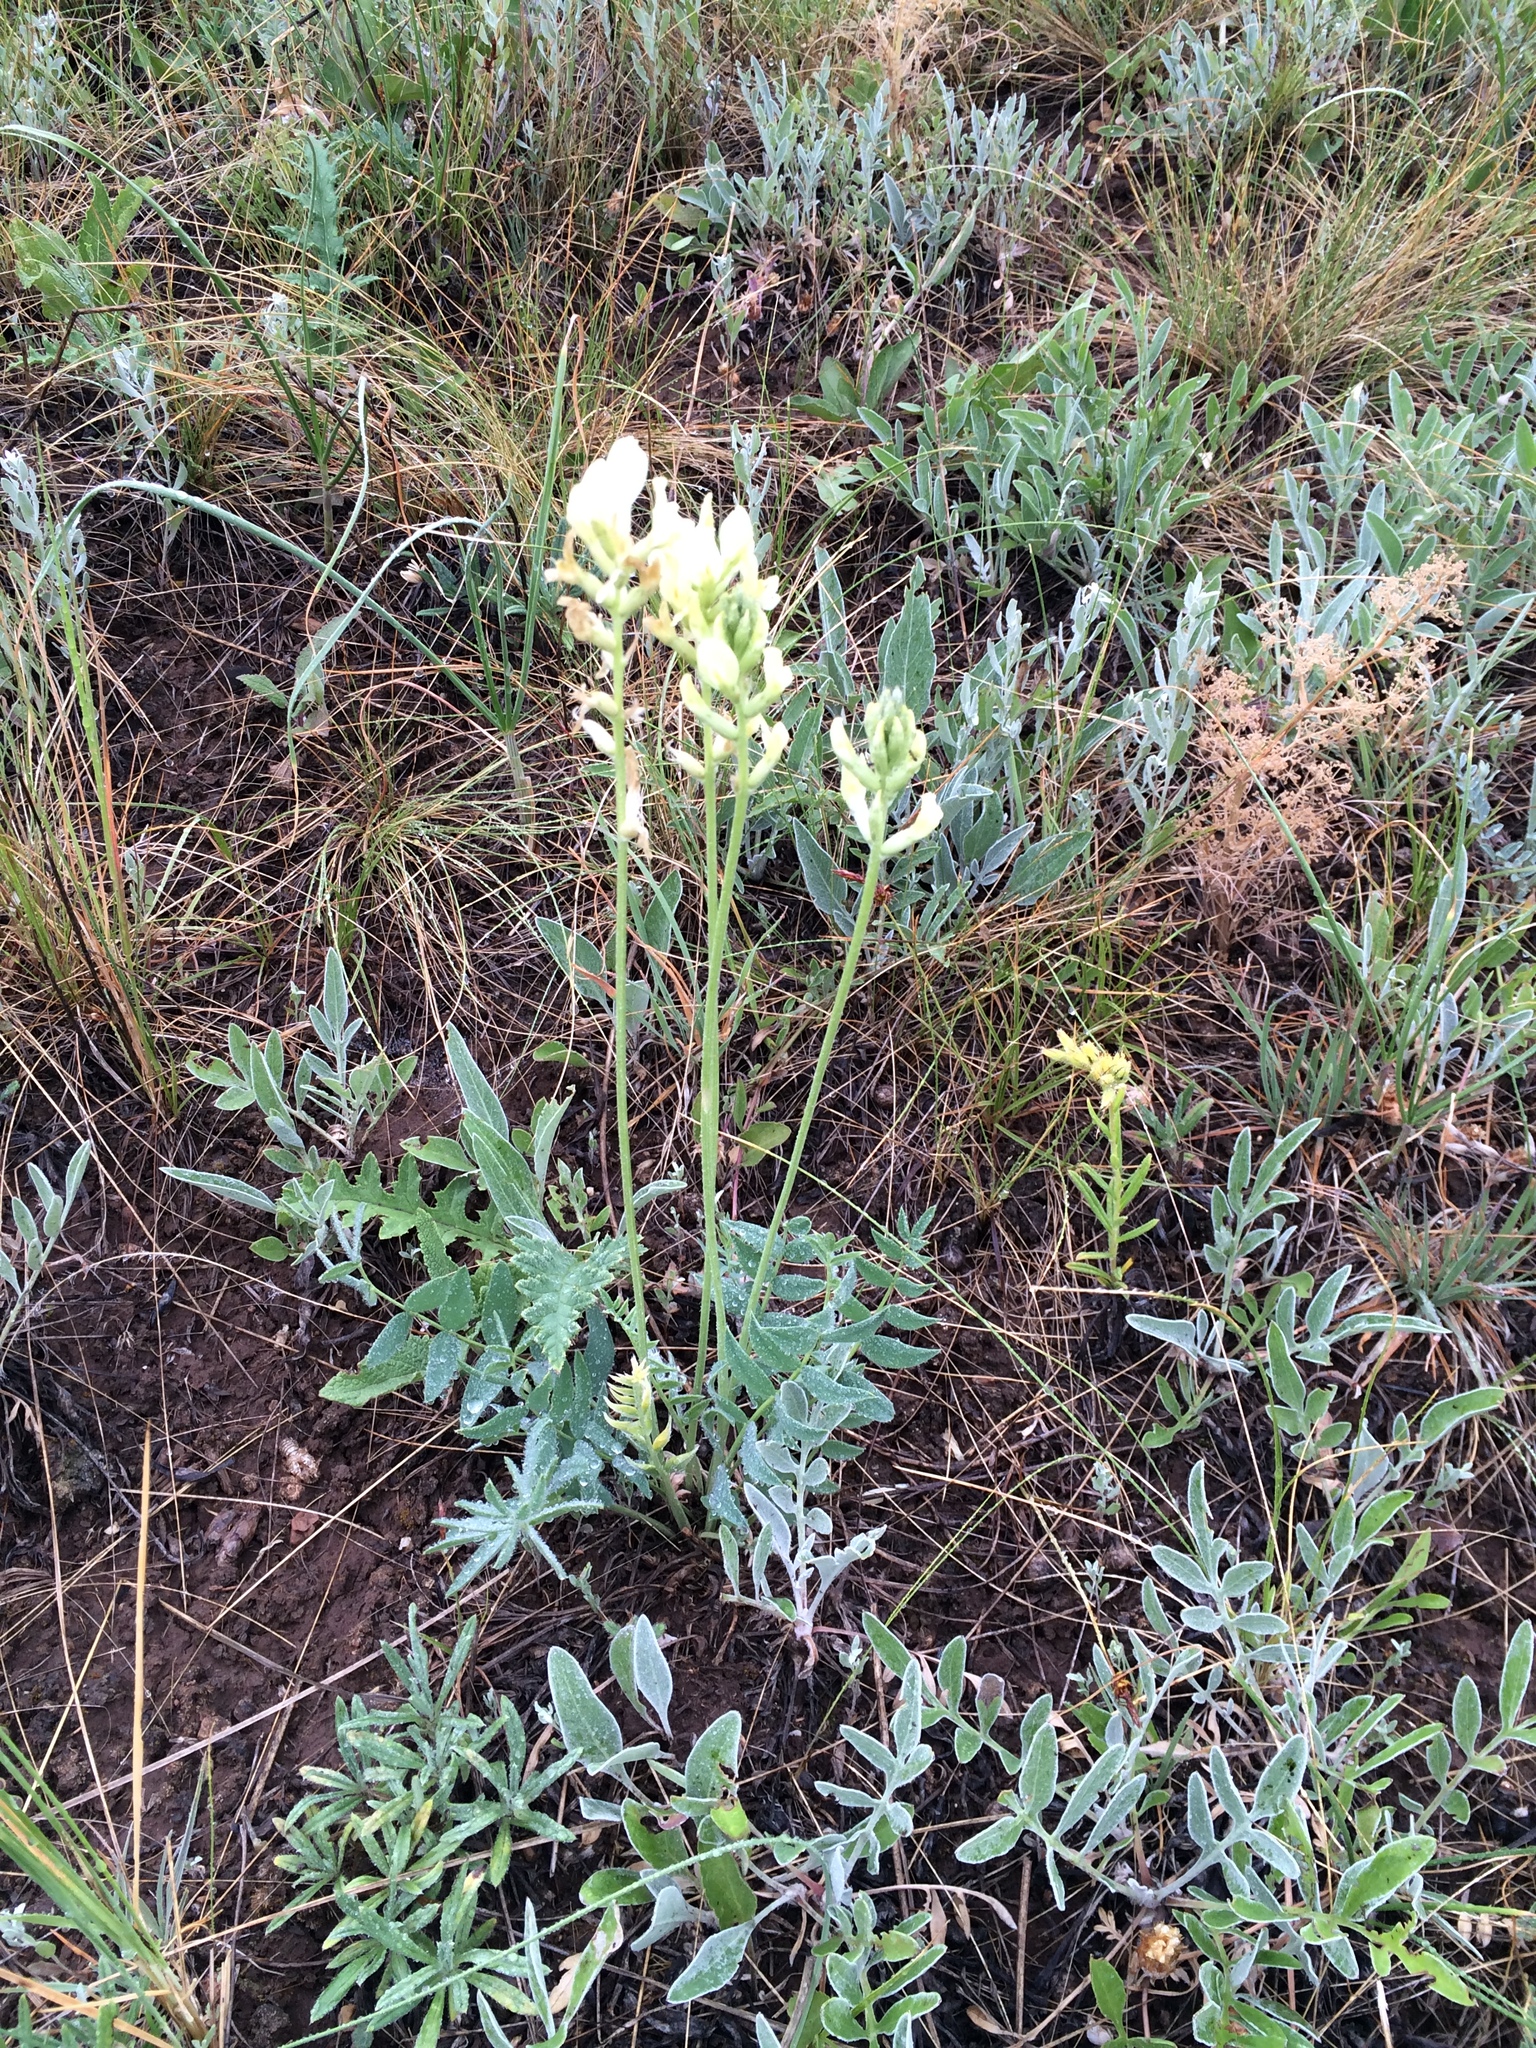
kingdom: Plantae
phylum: Tracheophyta
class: Magnoliopsida
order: Fabales
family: Fabaceae
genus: Oxytropis
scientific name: Oxytropis hippolyti
